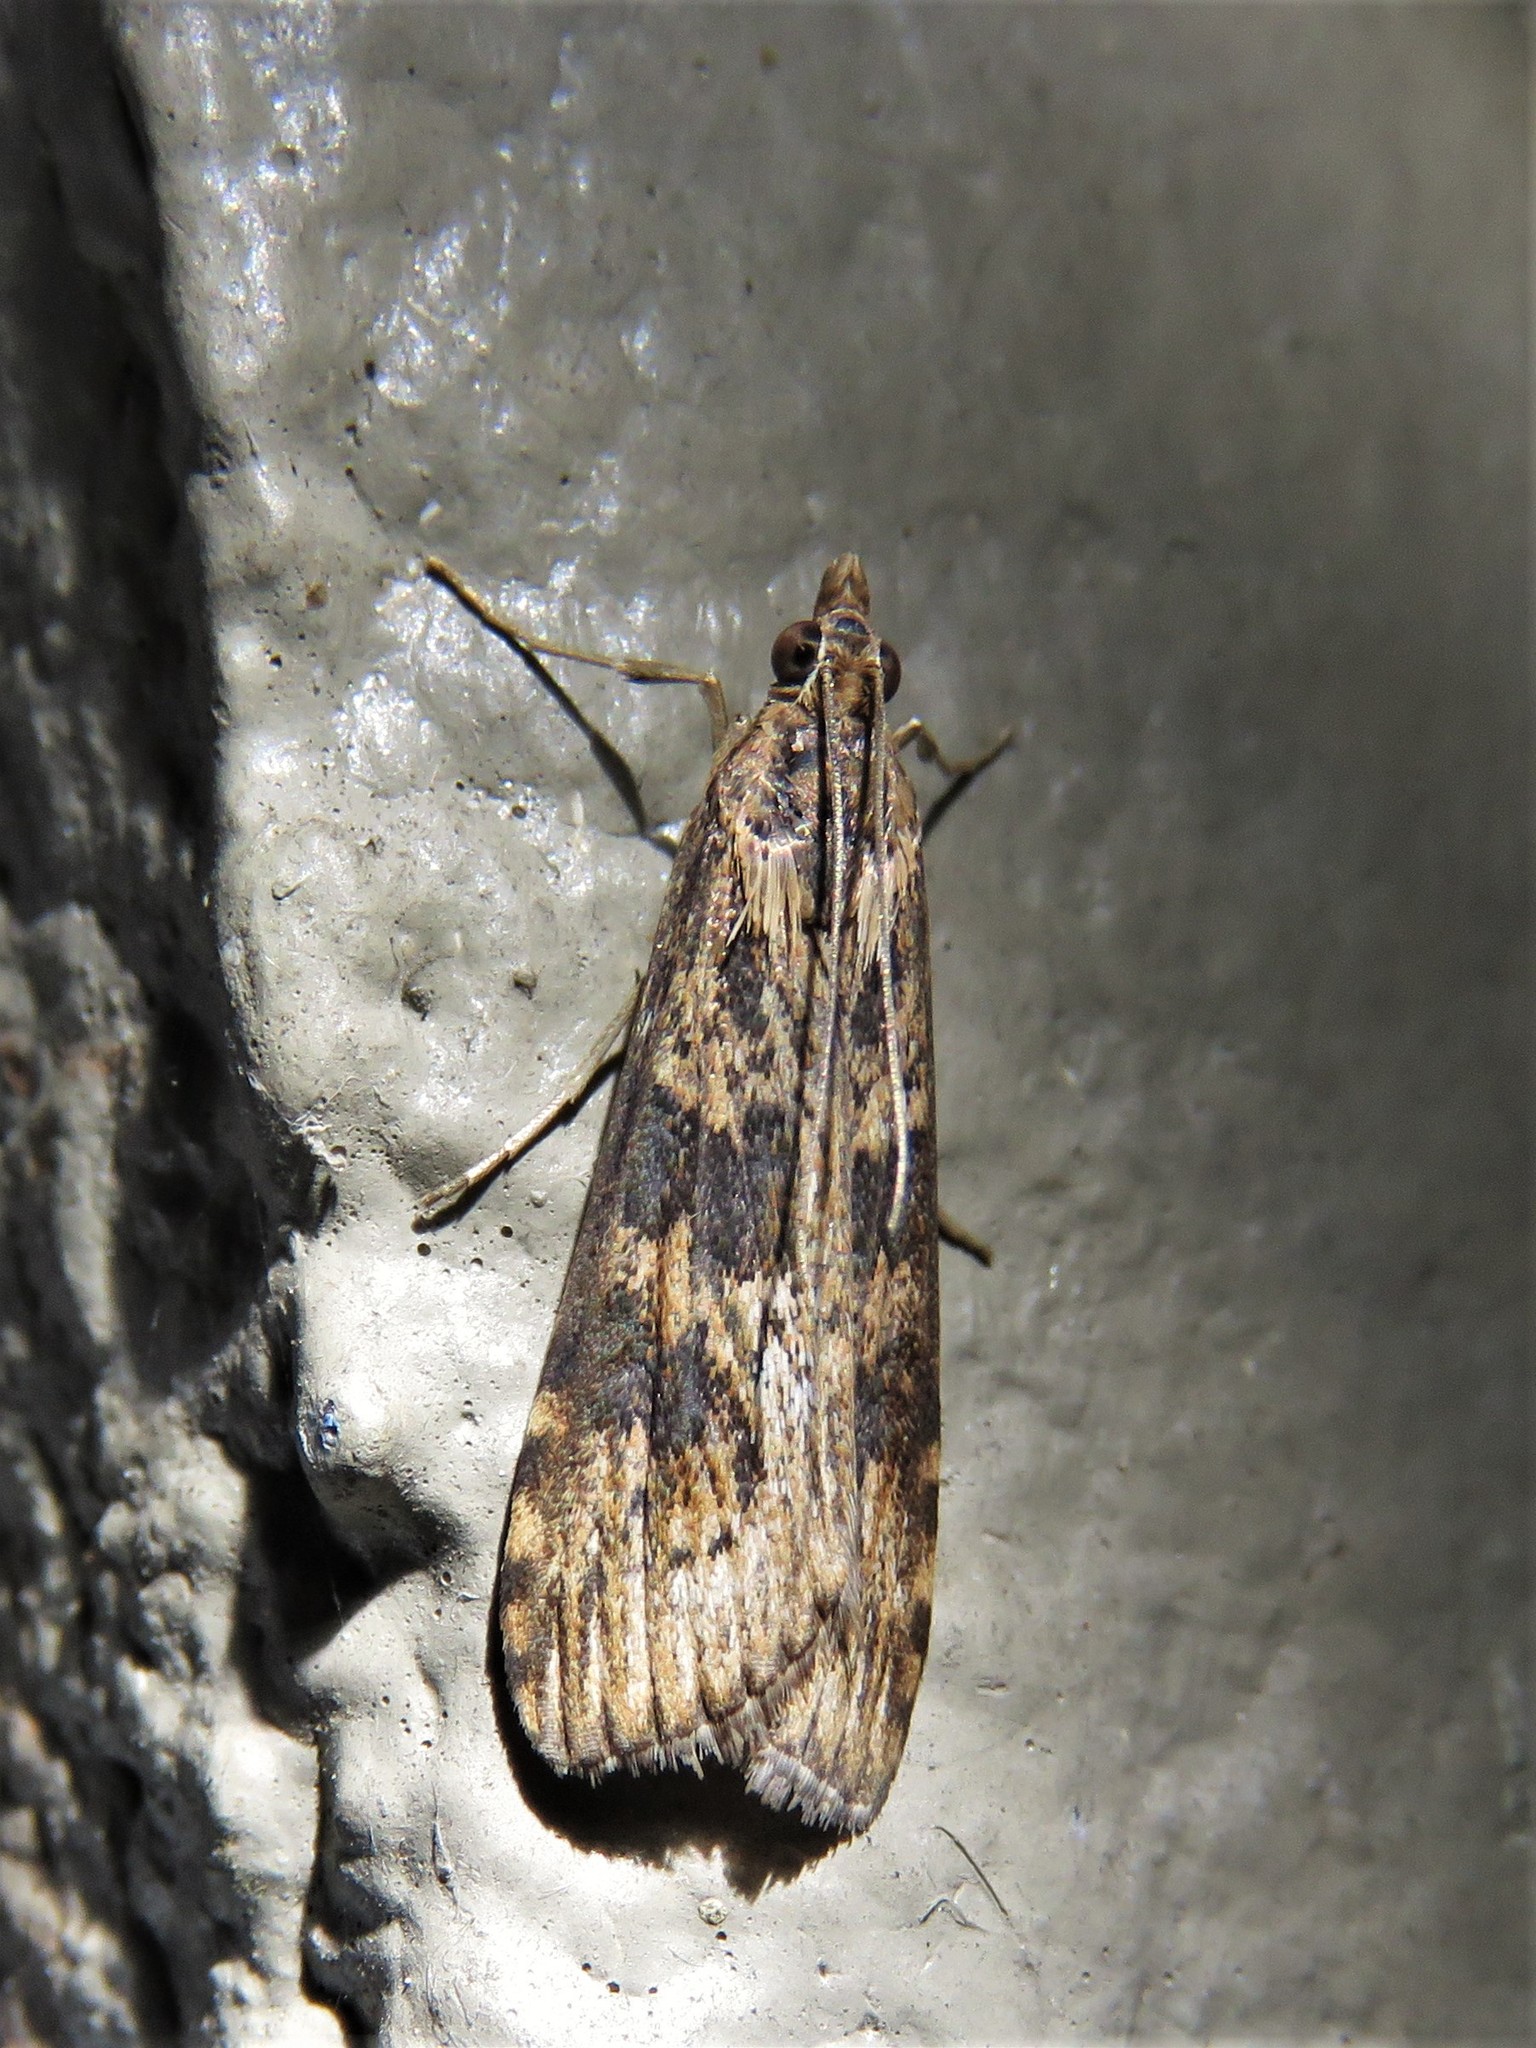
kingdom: Animalia
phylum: Arthropoda
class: Insecta
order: Lepidoptera
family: Crambidae
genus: Nomophila
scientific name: Nomophila nearctica
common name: American rush veneer
